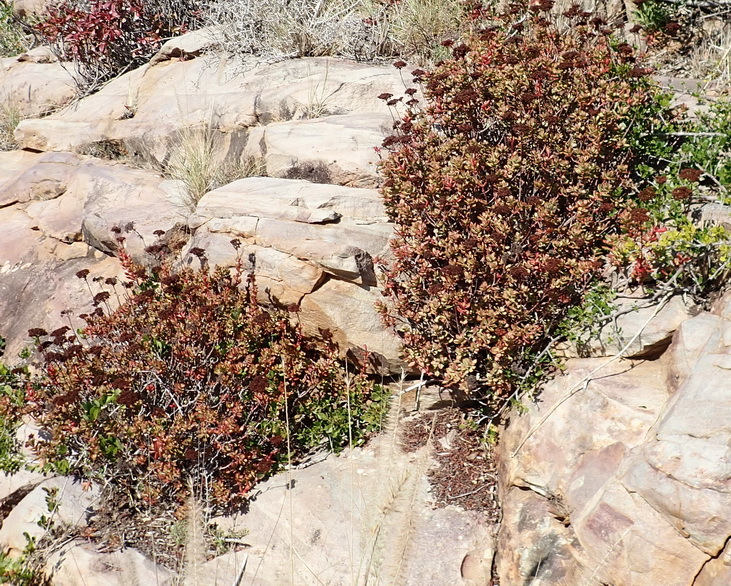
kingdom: Plantae
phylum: Tracheophyta
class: Magnoliopsida
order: Saxifragales
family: Crassulaceae
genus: Crassula
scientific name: Crassula rubricaulis
